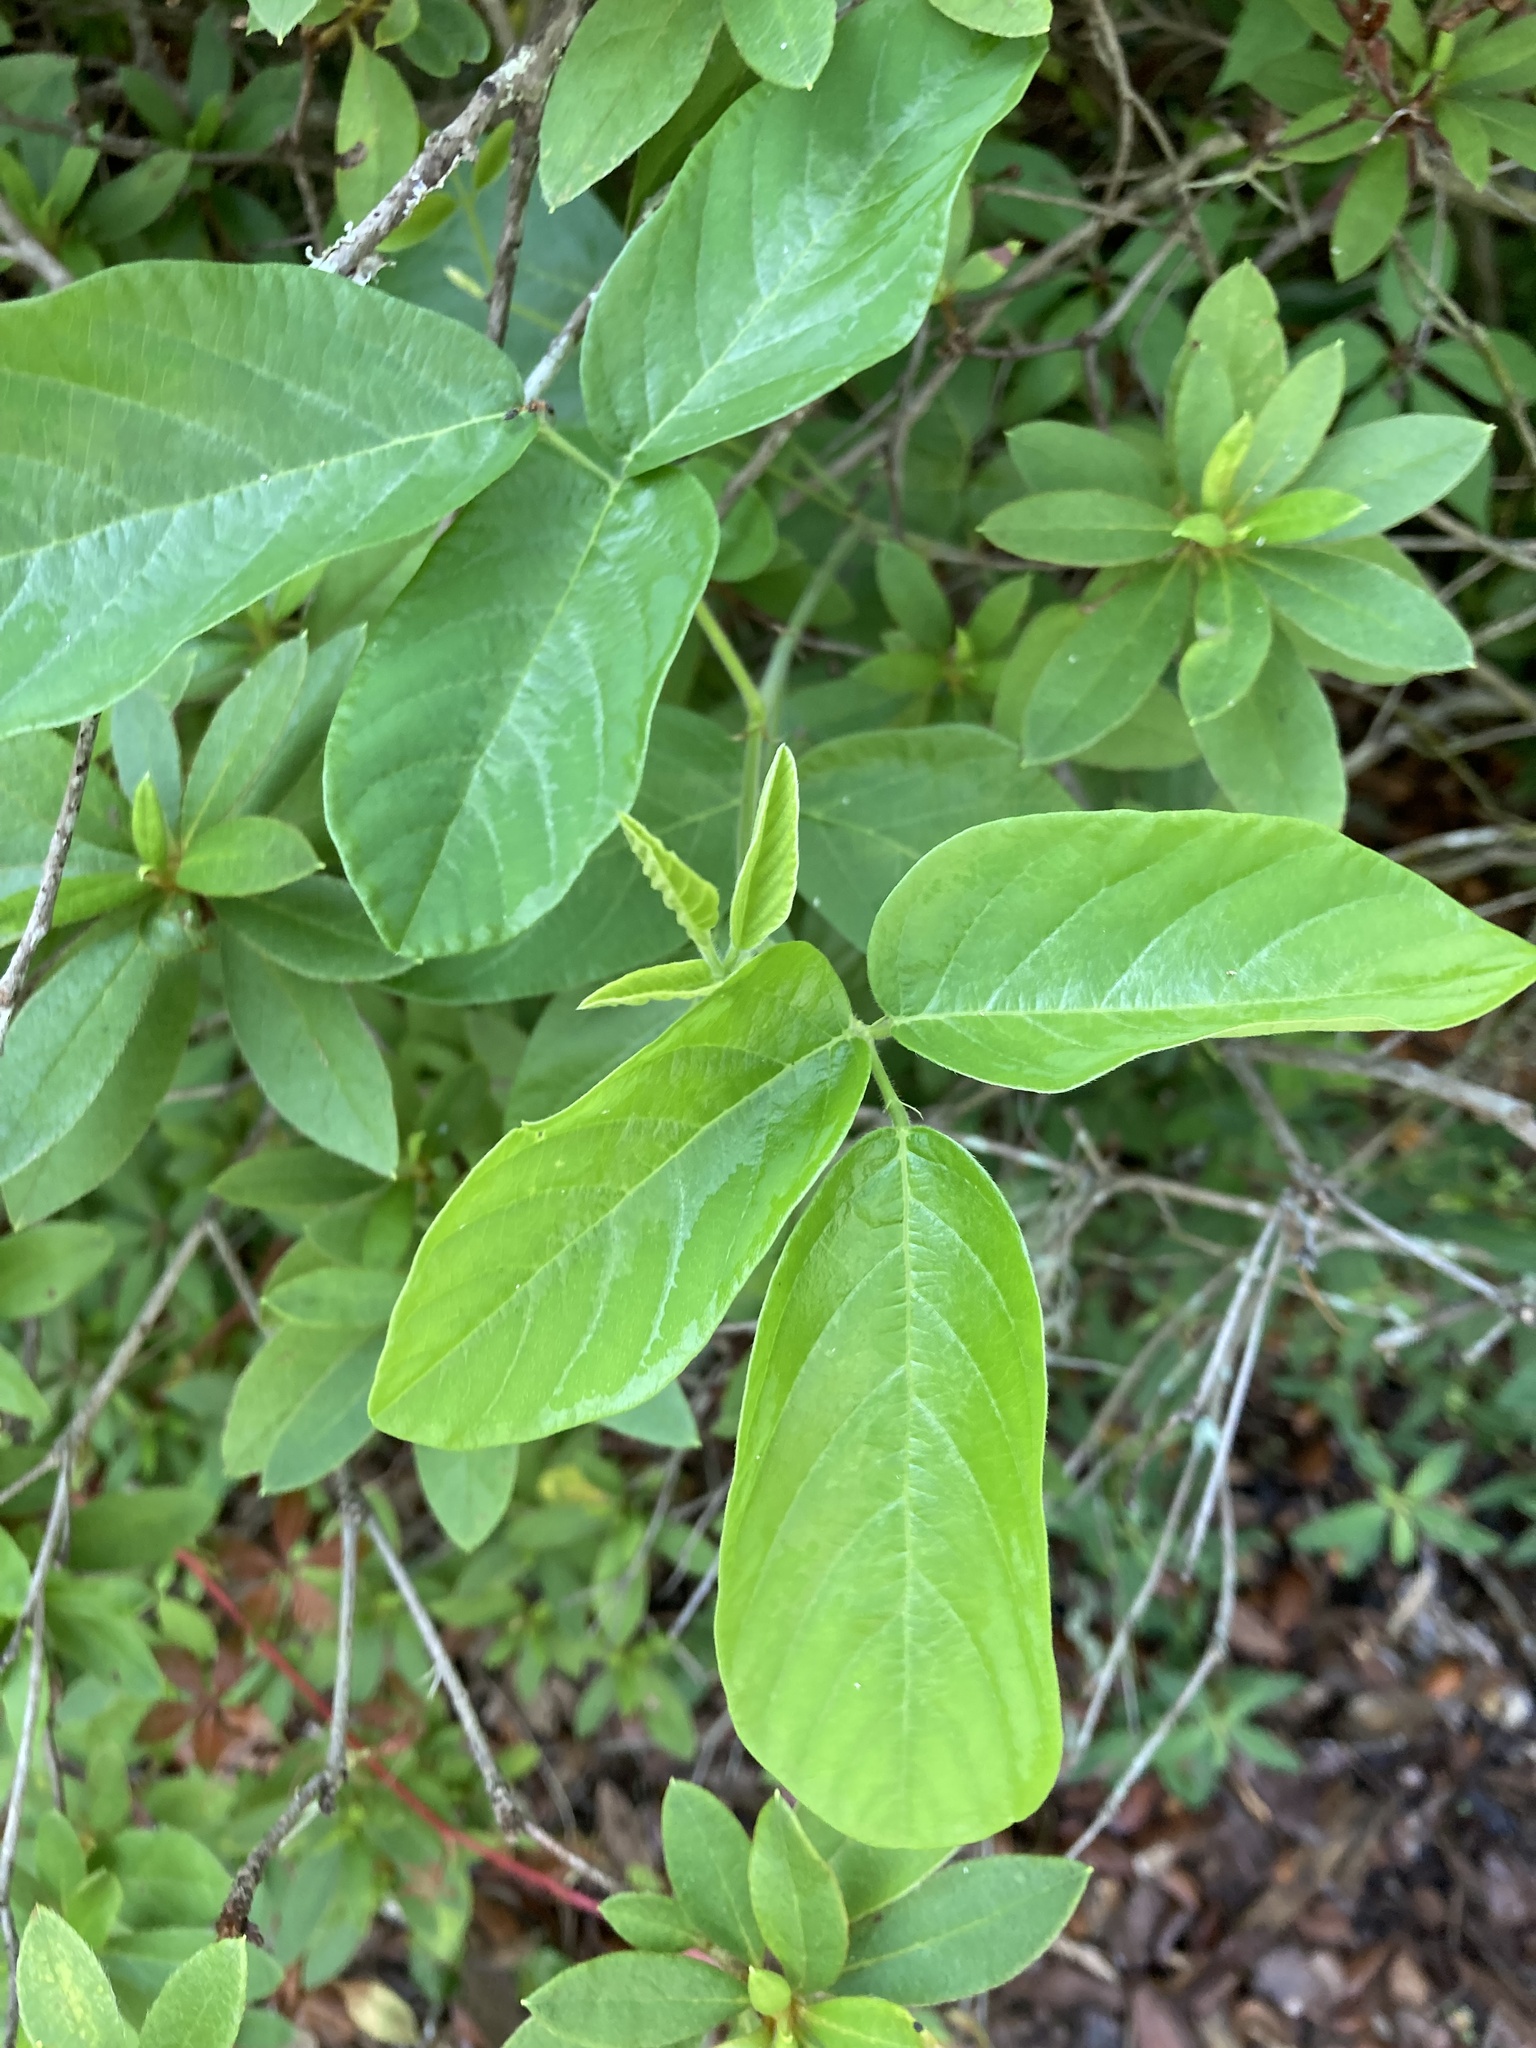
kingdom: Plantae
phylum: Tracheophyta
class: Magnoliopsida
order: Fabales
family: Fabaceae
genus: Desmodium
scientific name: Desmodium incanum
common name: Tickclover
